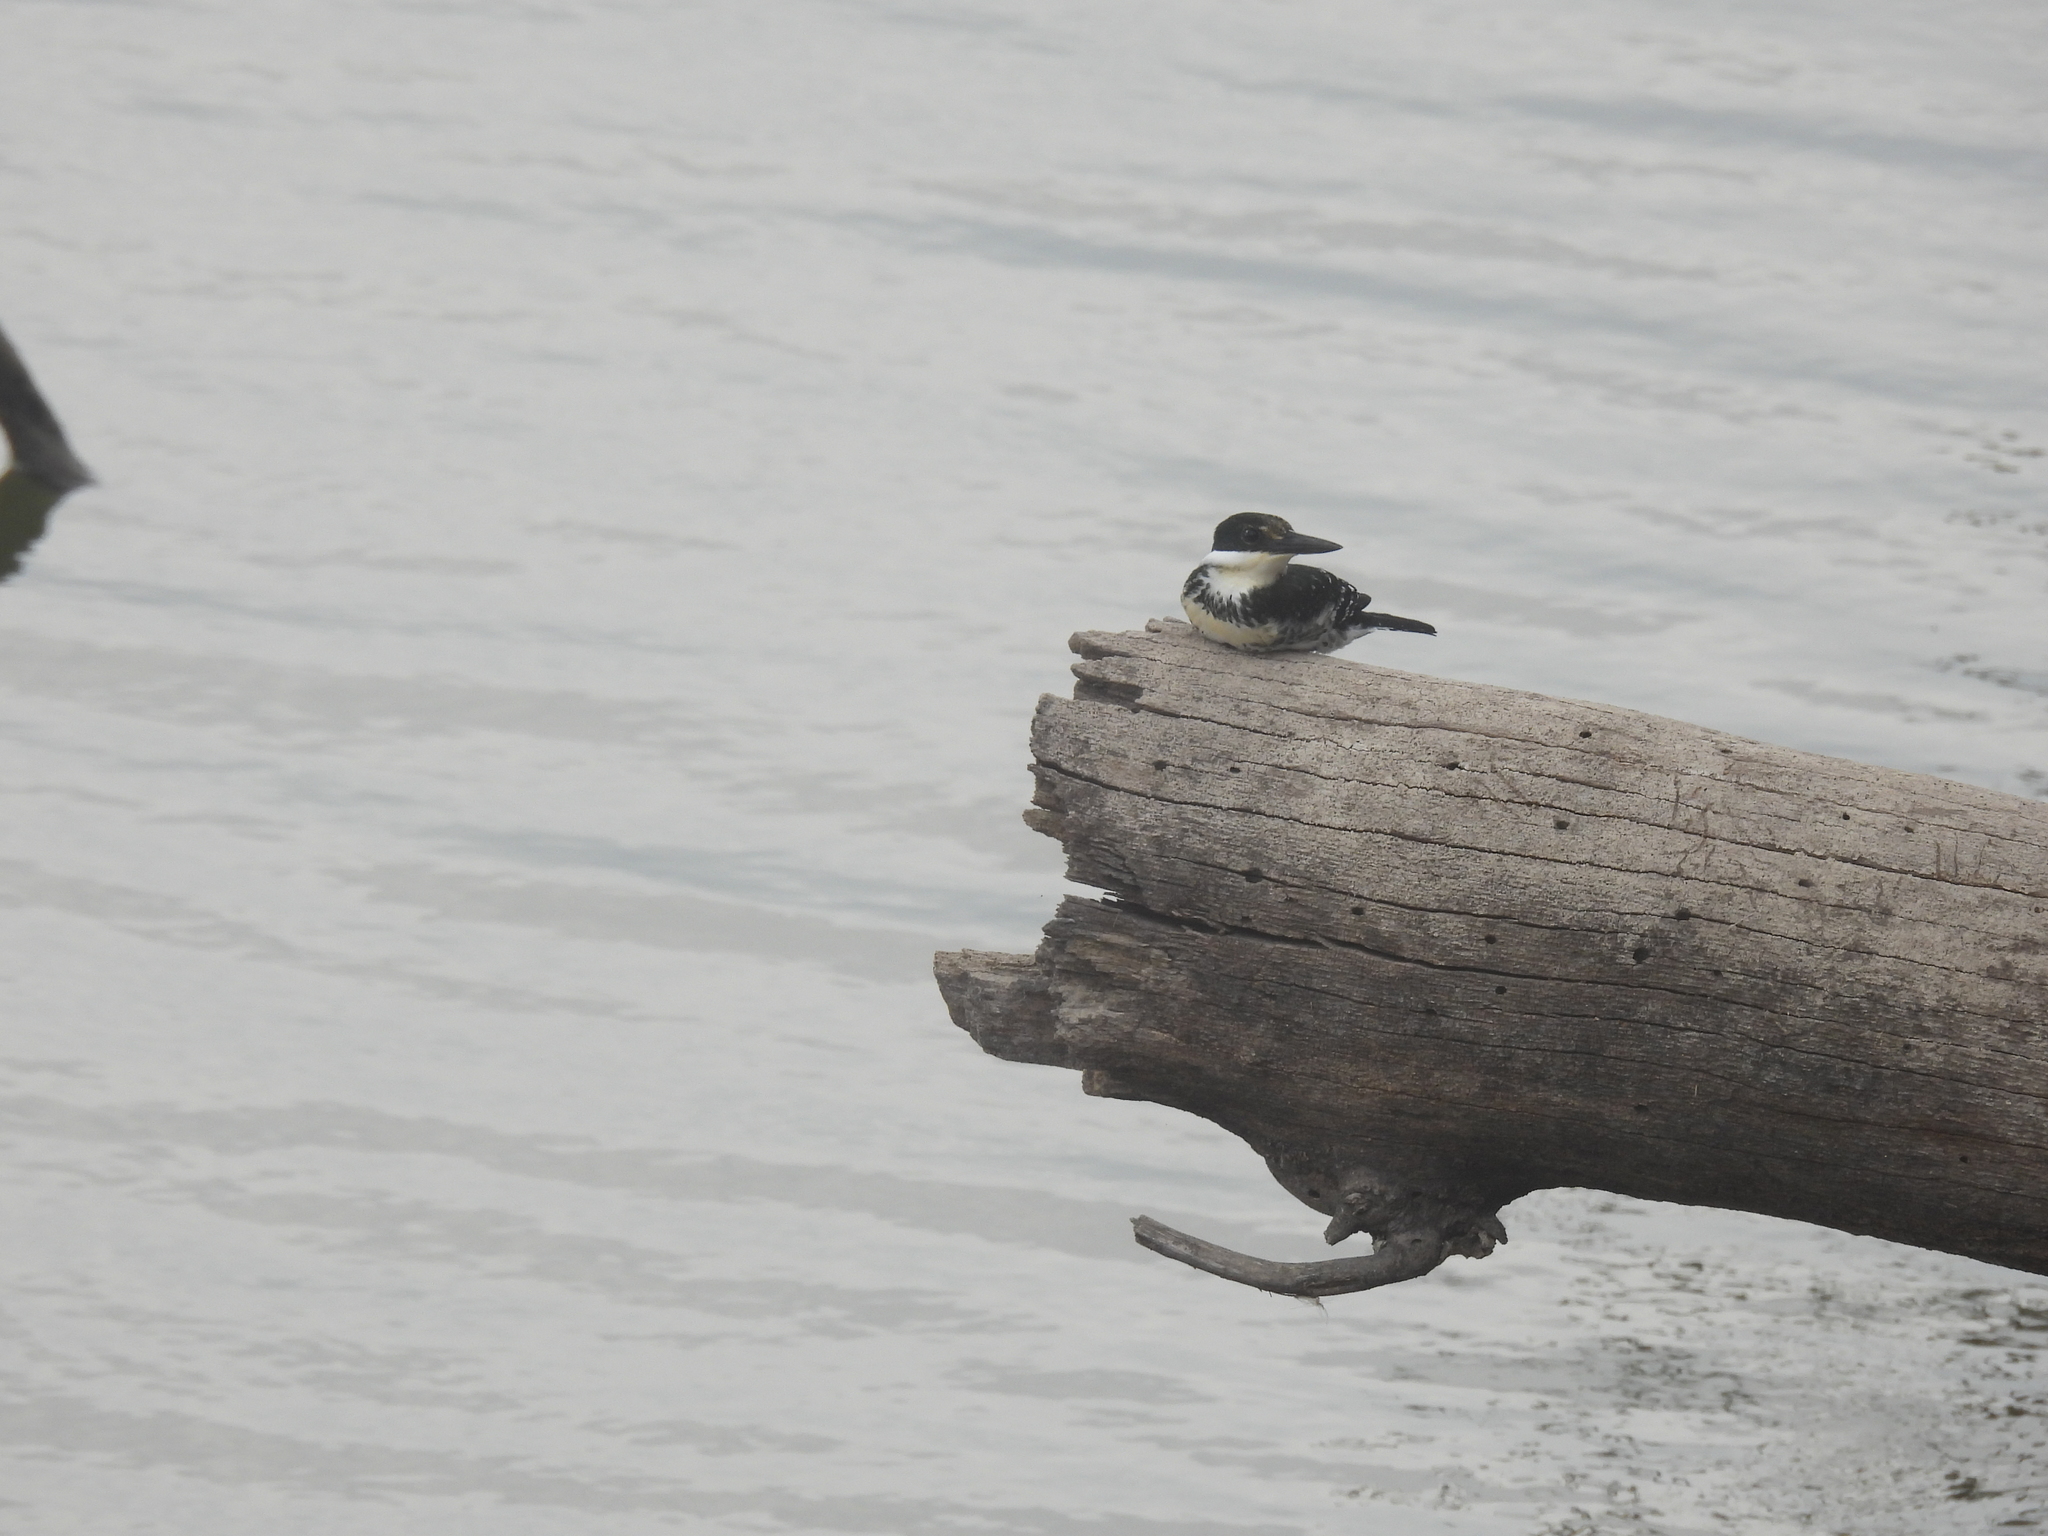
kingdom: Animalia
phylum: Chordata
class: Aves
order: Coraciiformes
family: Alcedinidae
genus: Chloroceryle
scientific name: Chloroceryle americana
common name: Green kingfisher
